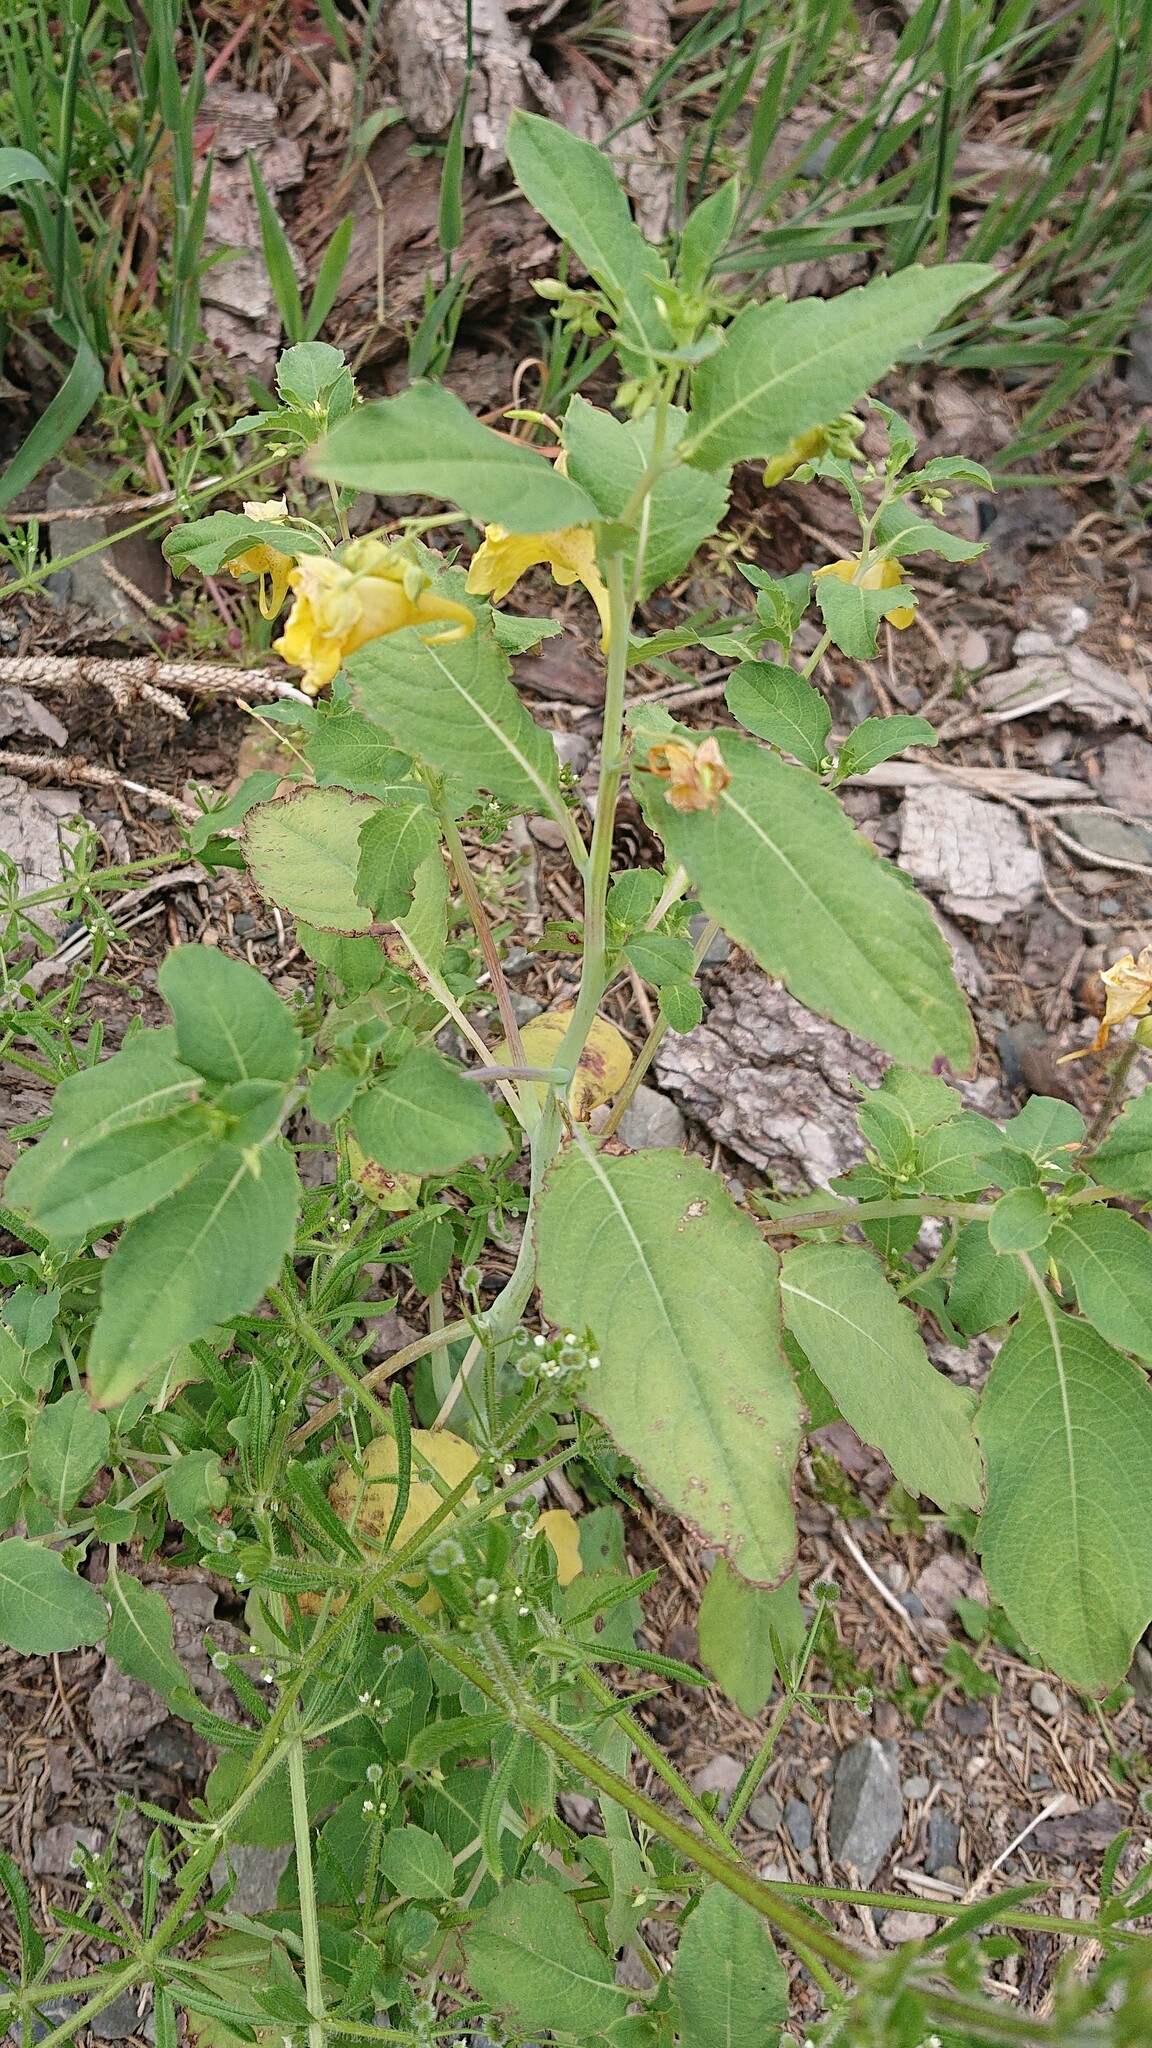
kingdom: Plantae
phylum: Tracheophyta
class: Magnoliopsida
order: Ericales
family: Balsaminaceae
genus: Impatiens
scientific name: Impatiens noli-tangere
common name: Touch-me-not balsam
